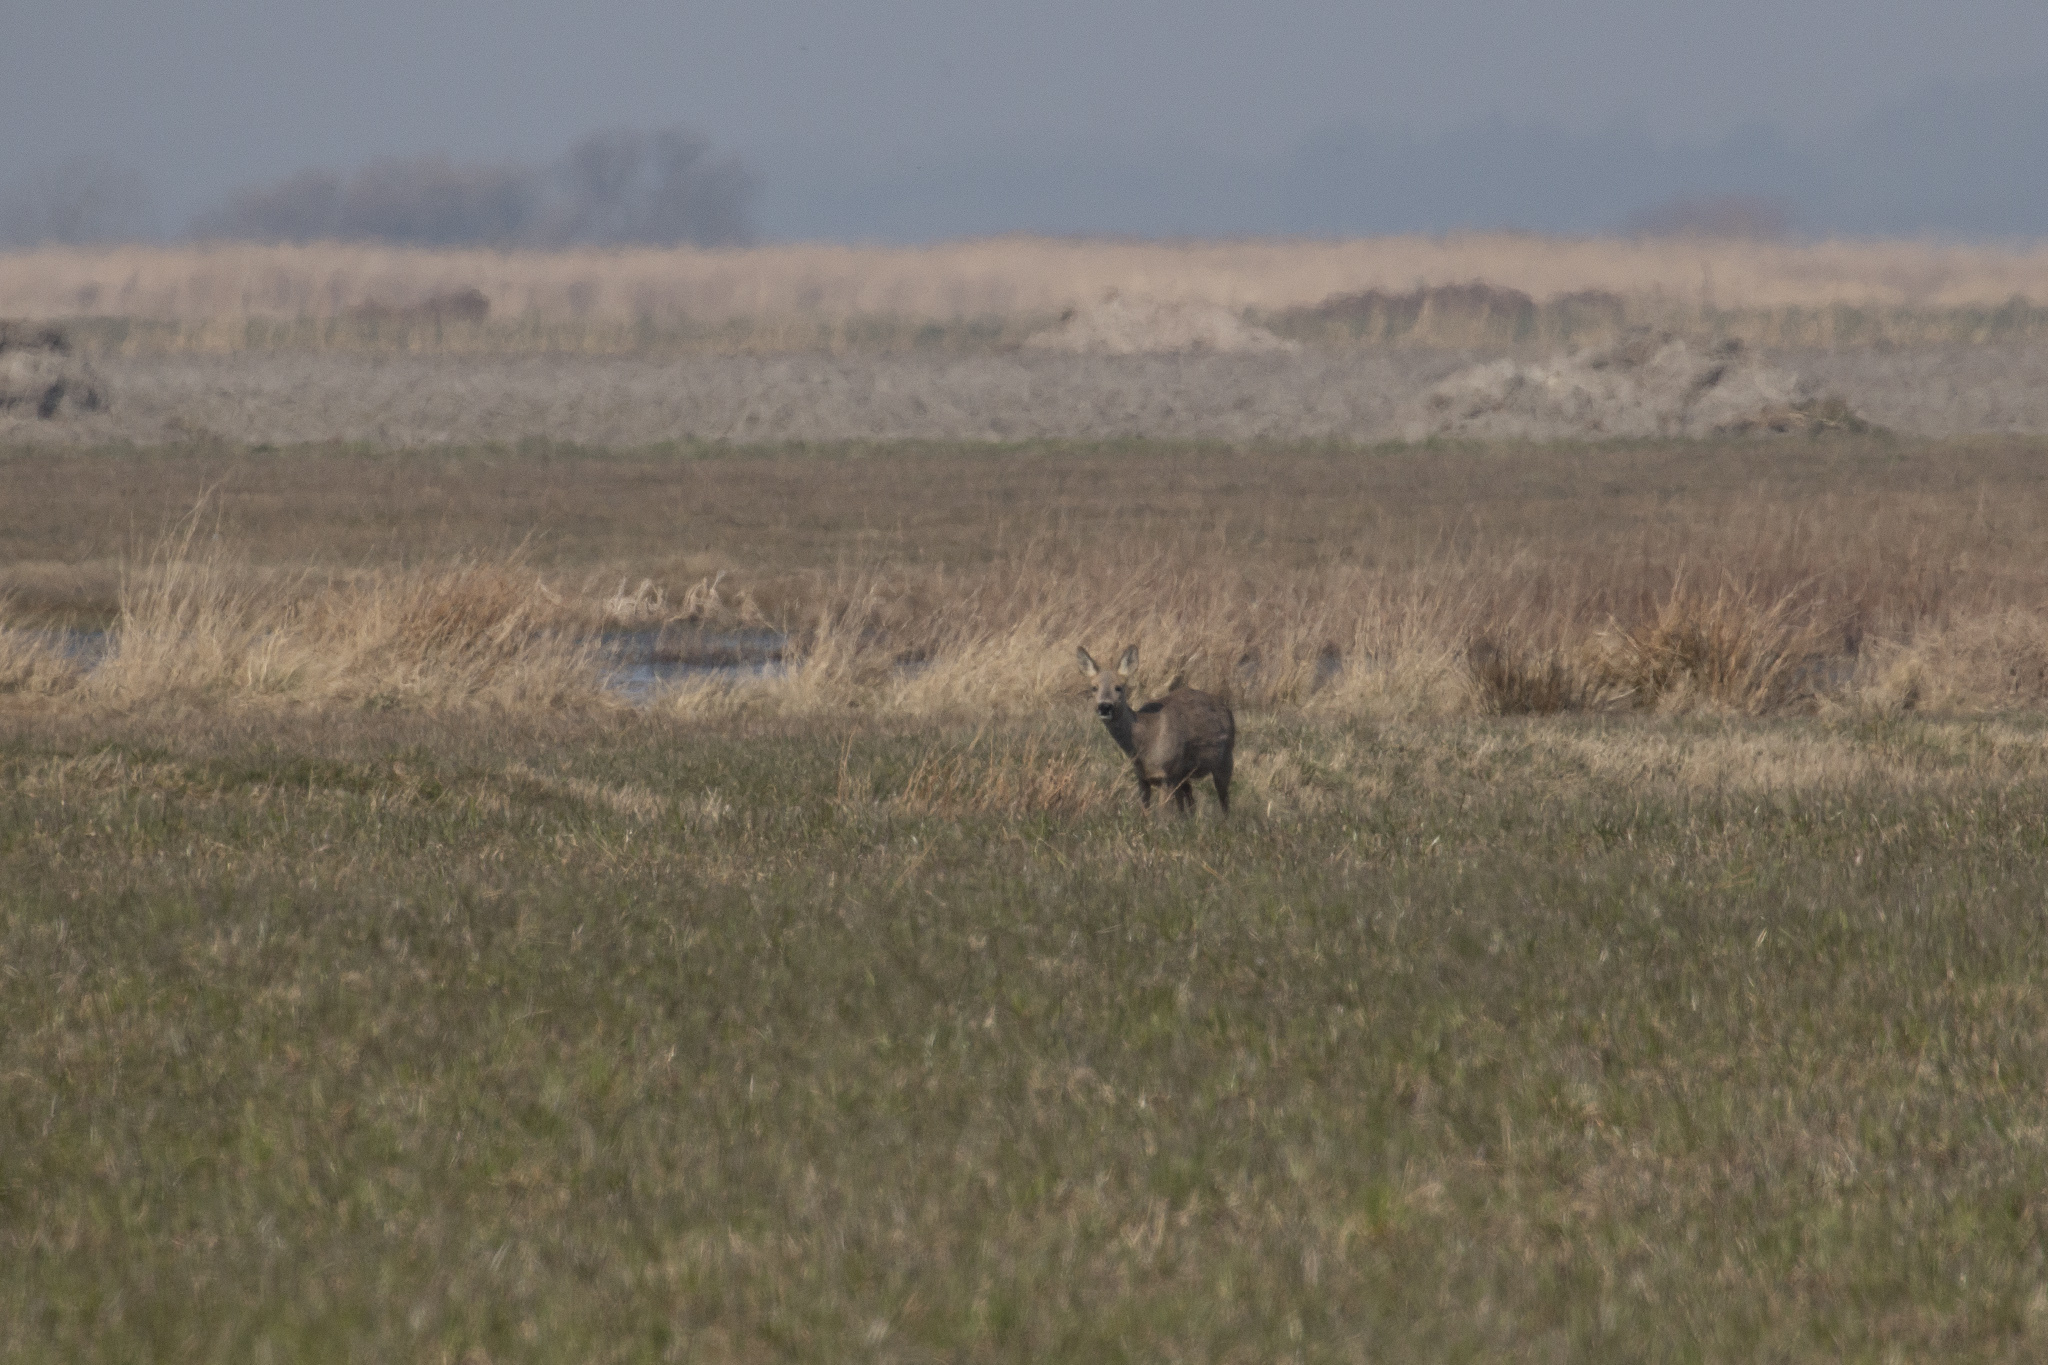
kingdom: Animalia
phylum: Chordata
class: Mammalia
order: Artiodactyla
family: Cervidae
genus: Capreolus
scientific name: Capreolus capreolus
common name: Western roe deer
